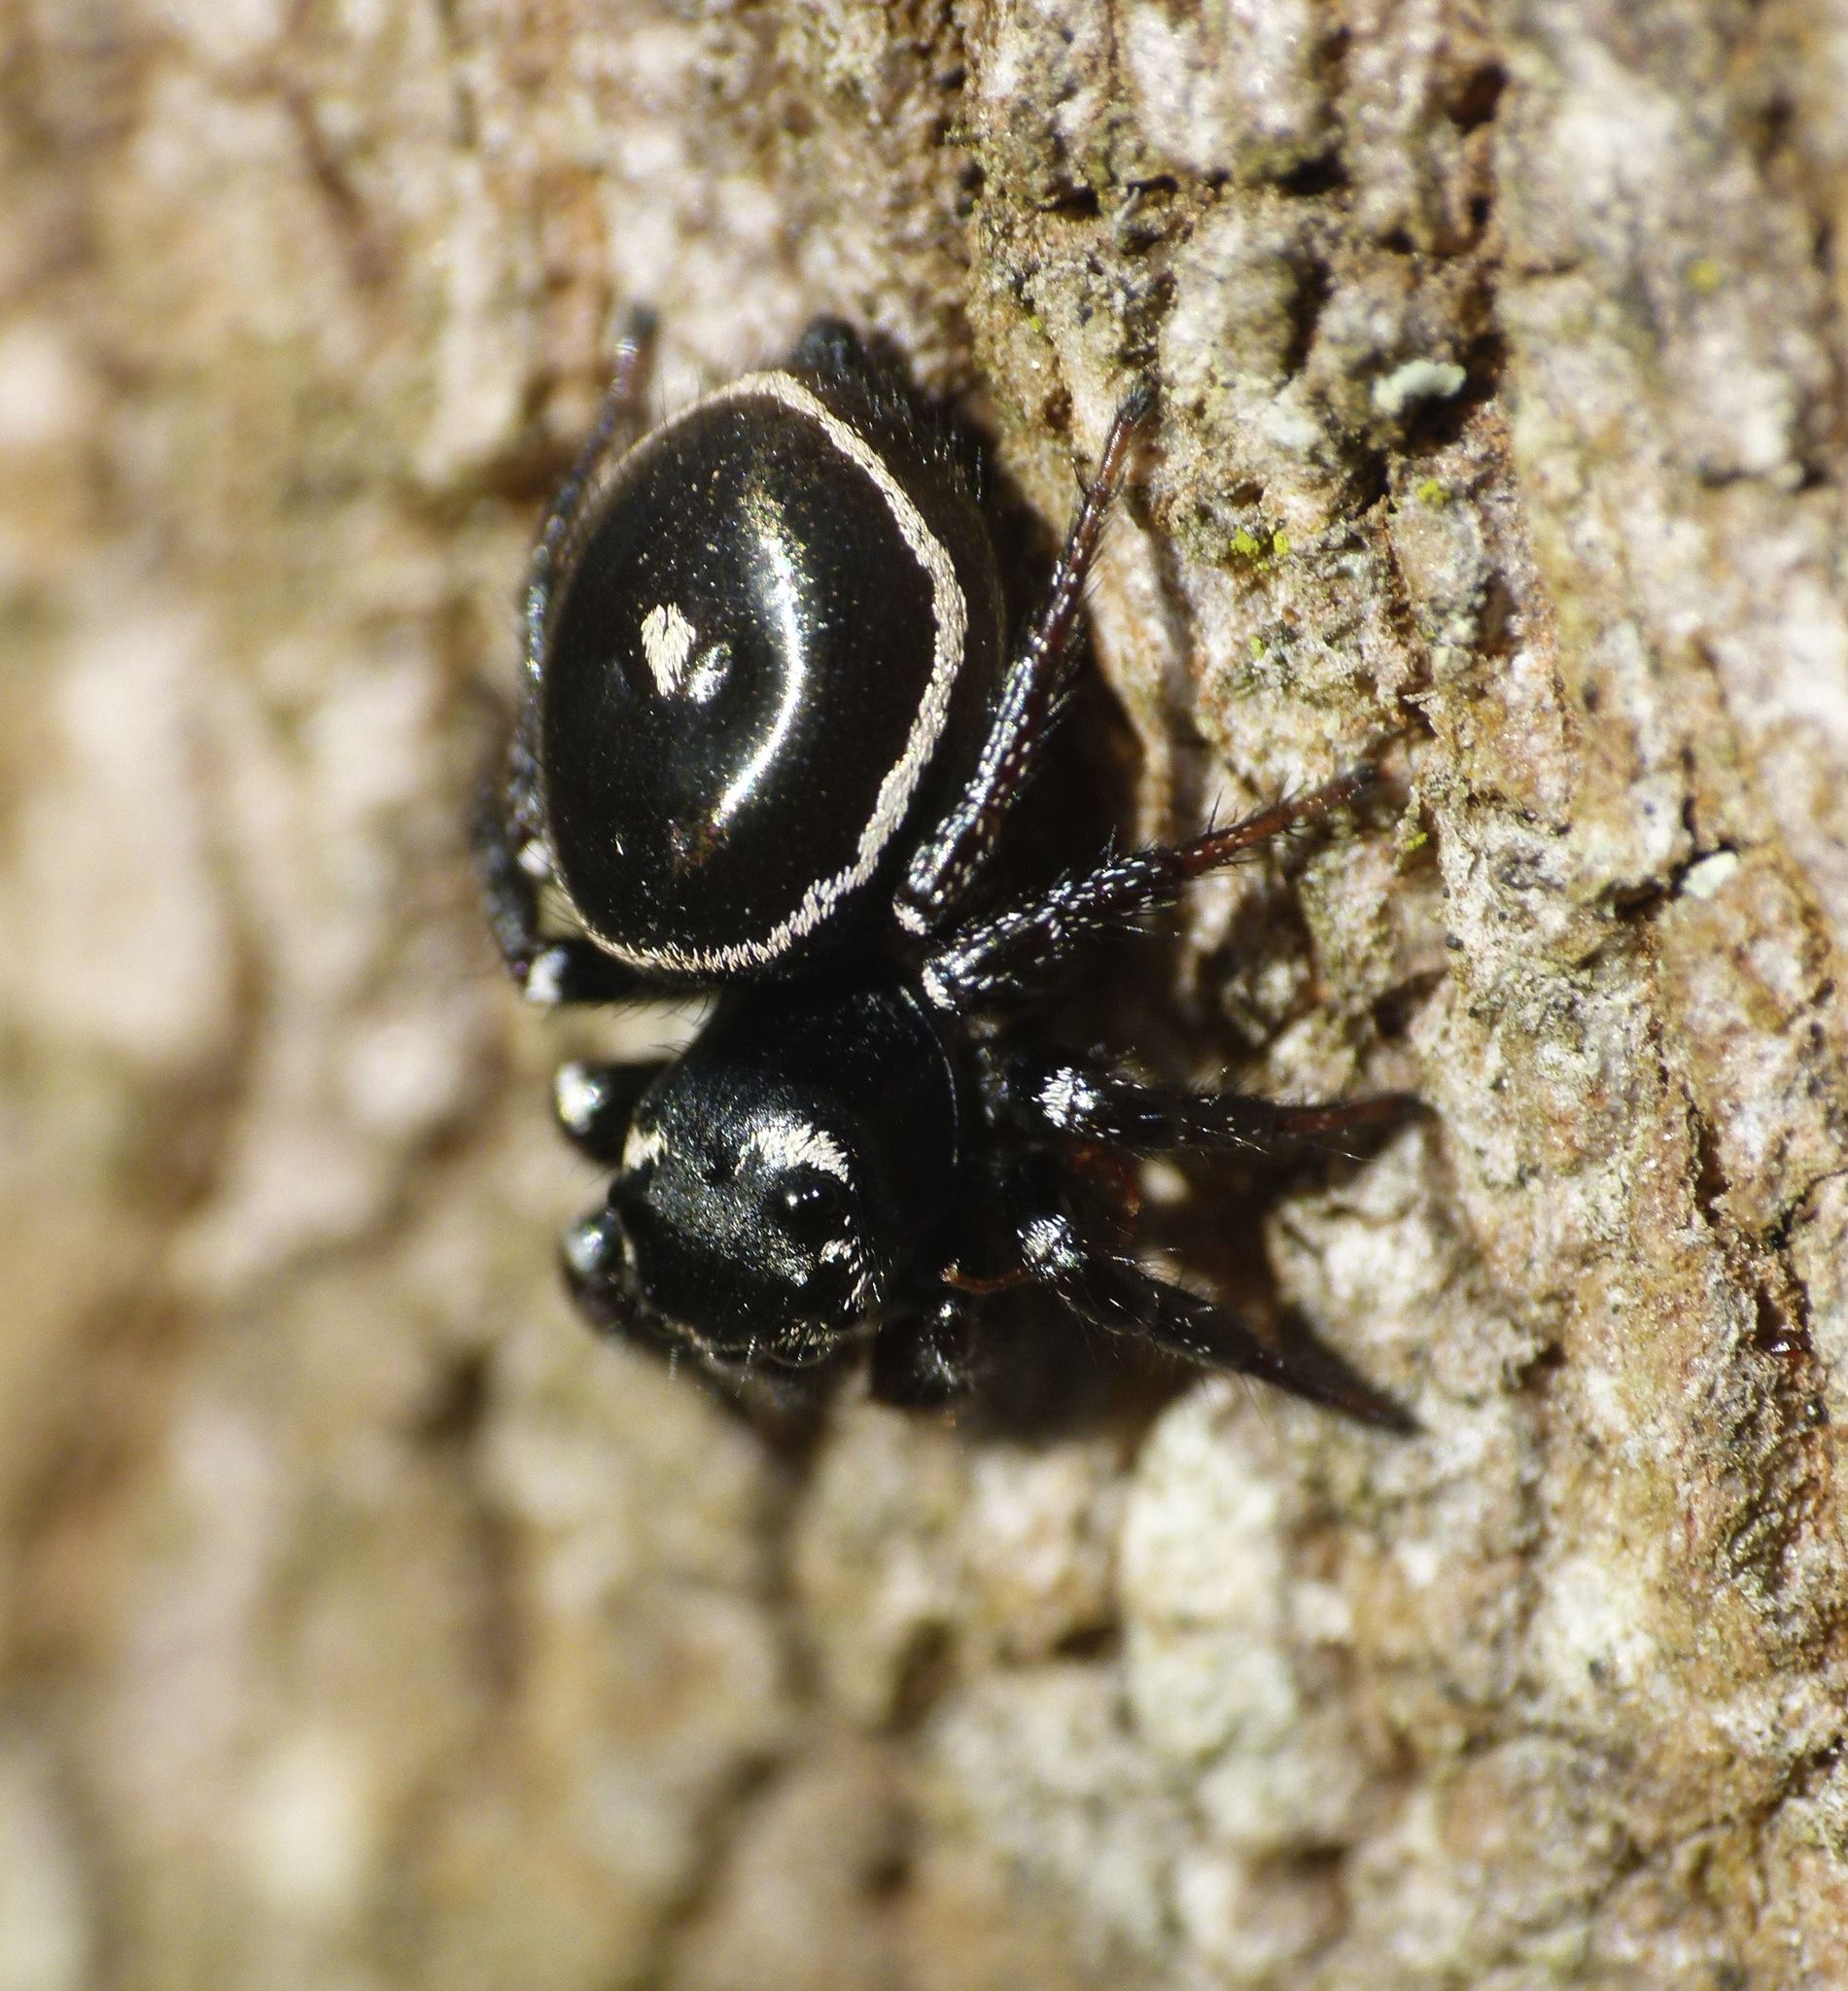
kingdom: Animalia
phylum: Arthropoda
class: Arachnida
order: Araneae
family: Salticidae
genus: Zenodorus
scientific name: Zenodorus orbiculatus
